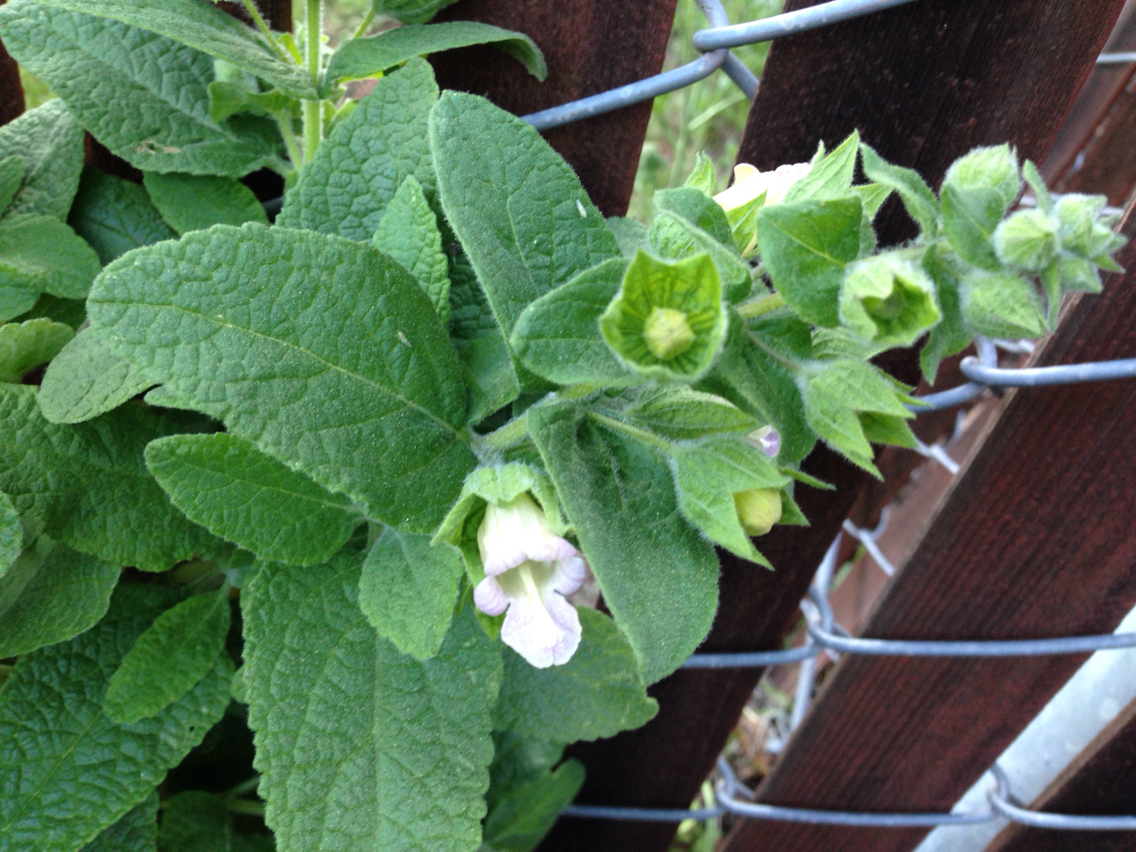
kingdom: Plantae
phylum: Tracheophyta
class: Magnoliopsida
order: Lamiales
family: Lamiaceae
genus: Lepechinia
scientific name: Lepechinia calycina
